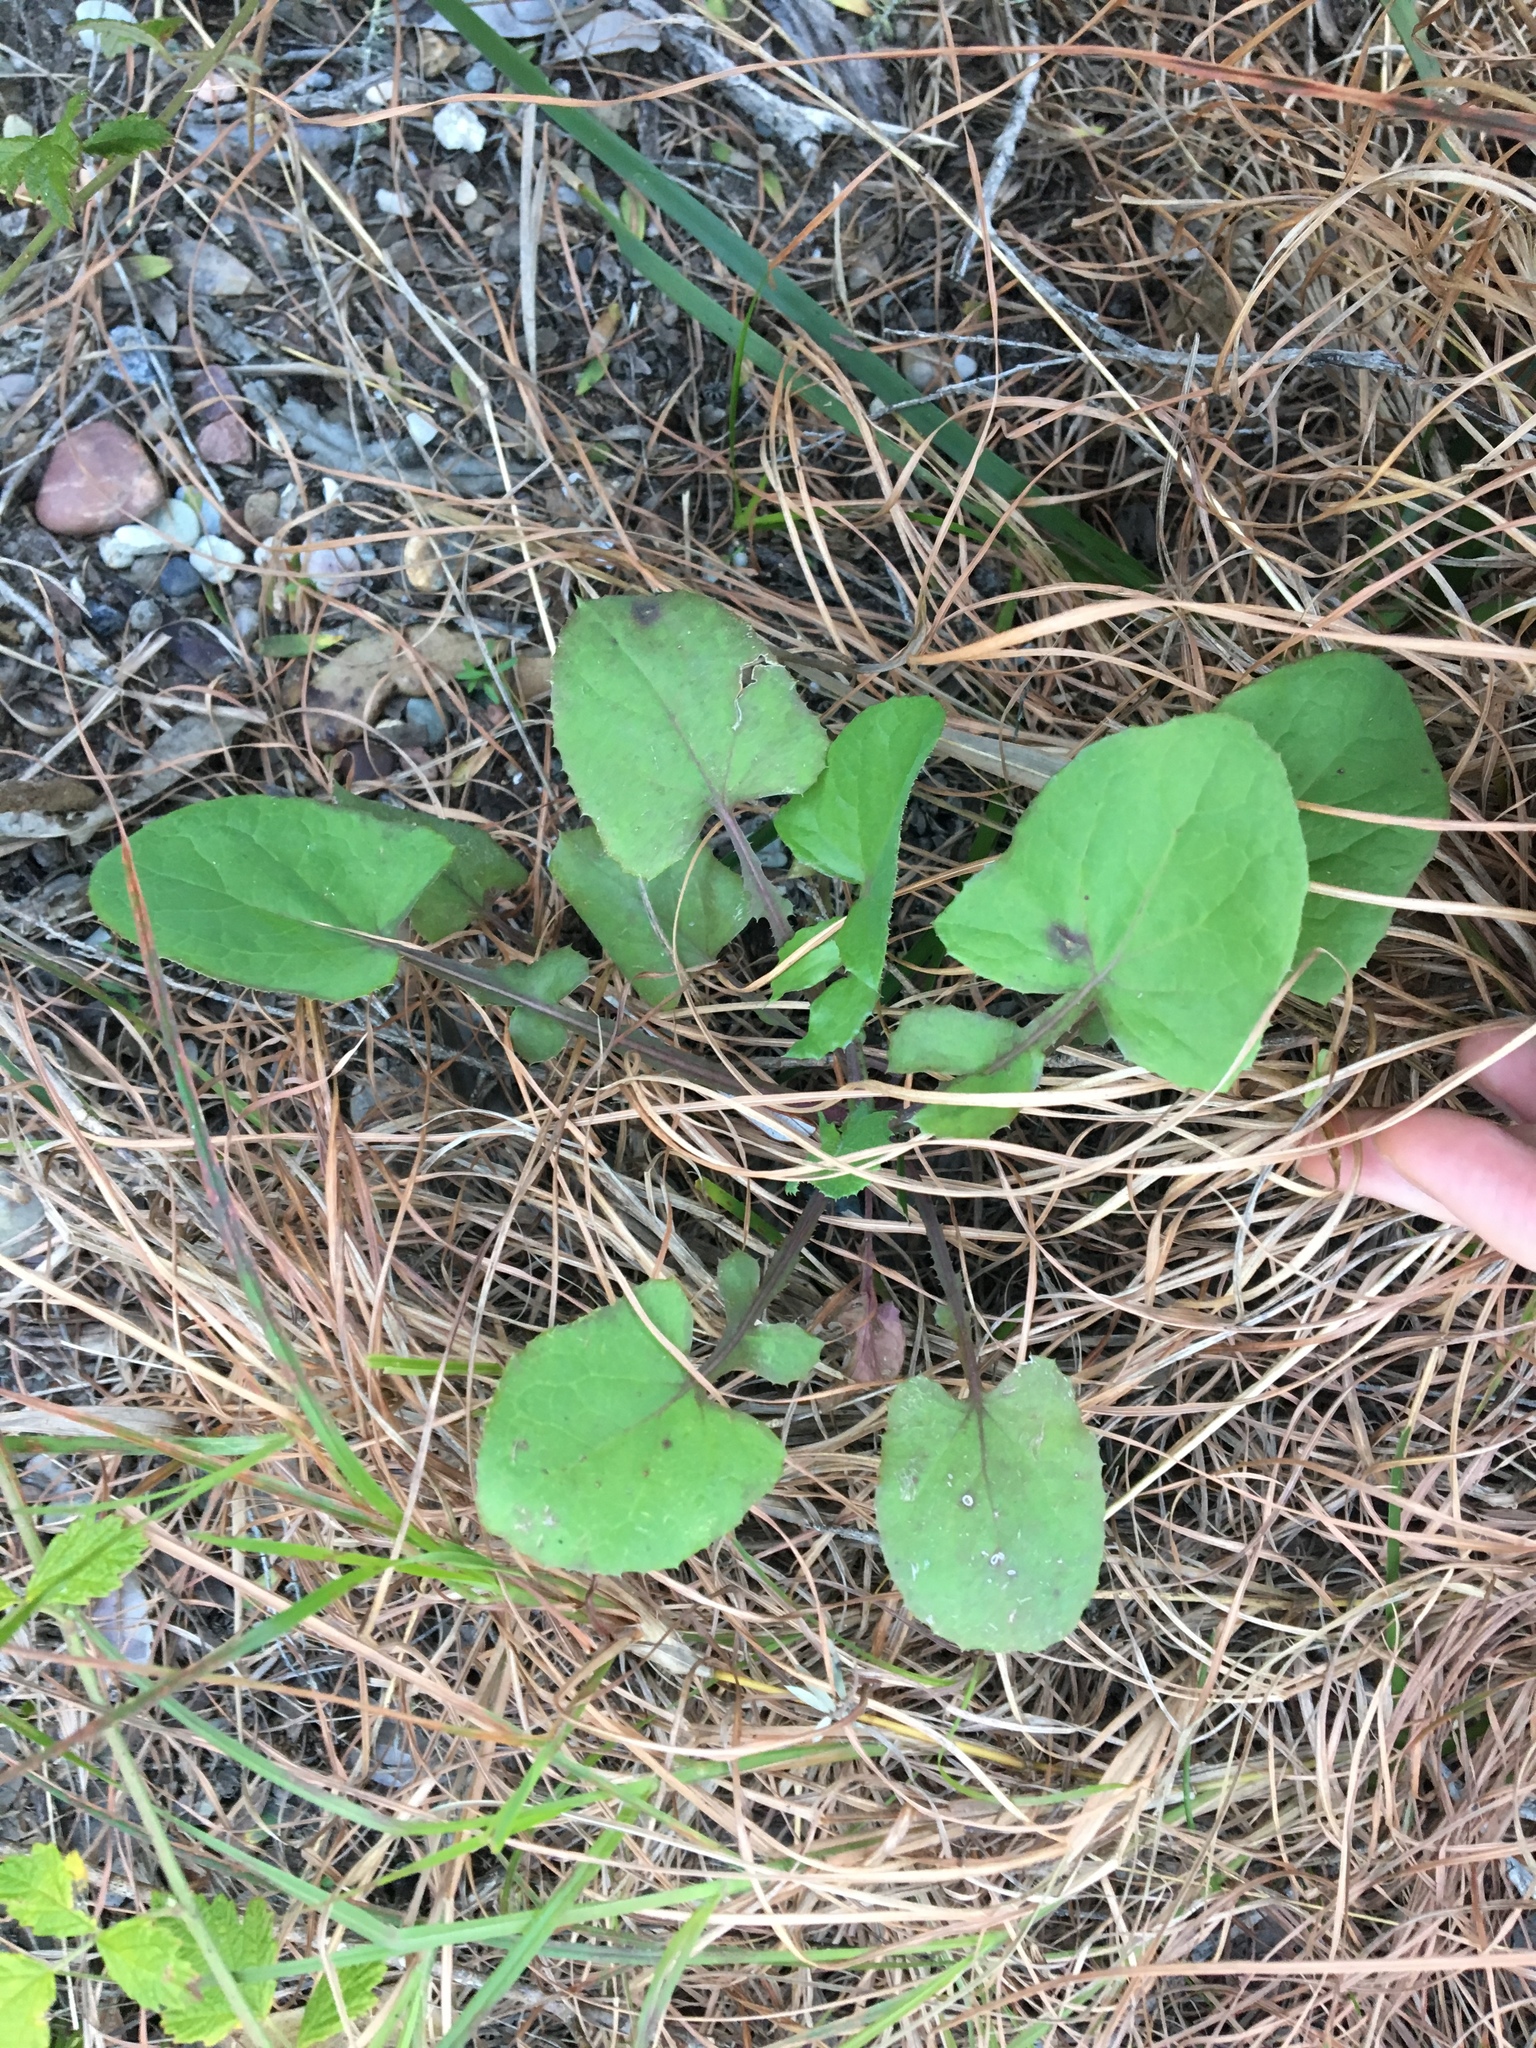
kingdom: Plantae
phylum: Tracheophyta
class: Magnoliopsida
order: Asterales
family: Asteraceae
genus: Sonchus
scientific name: Sonchus oleraceus
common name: Common sowthistle
